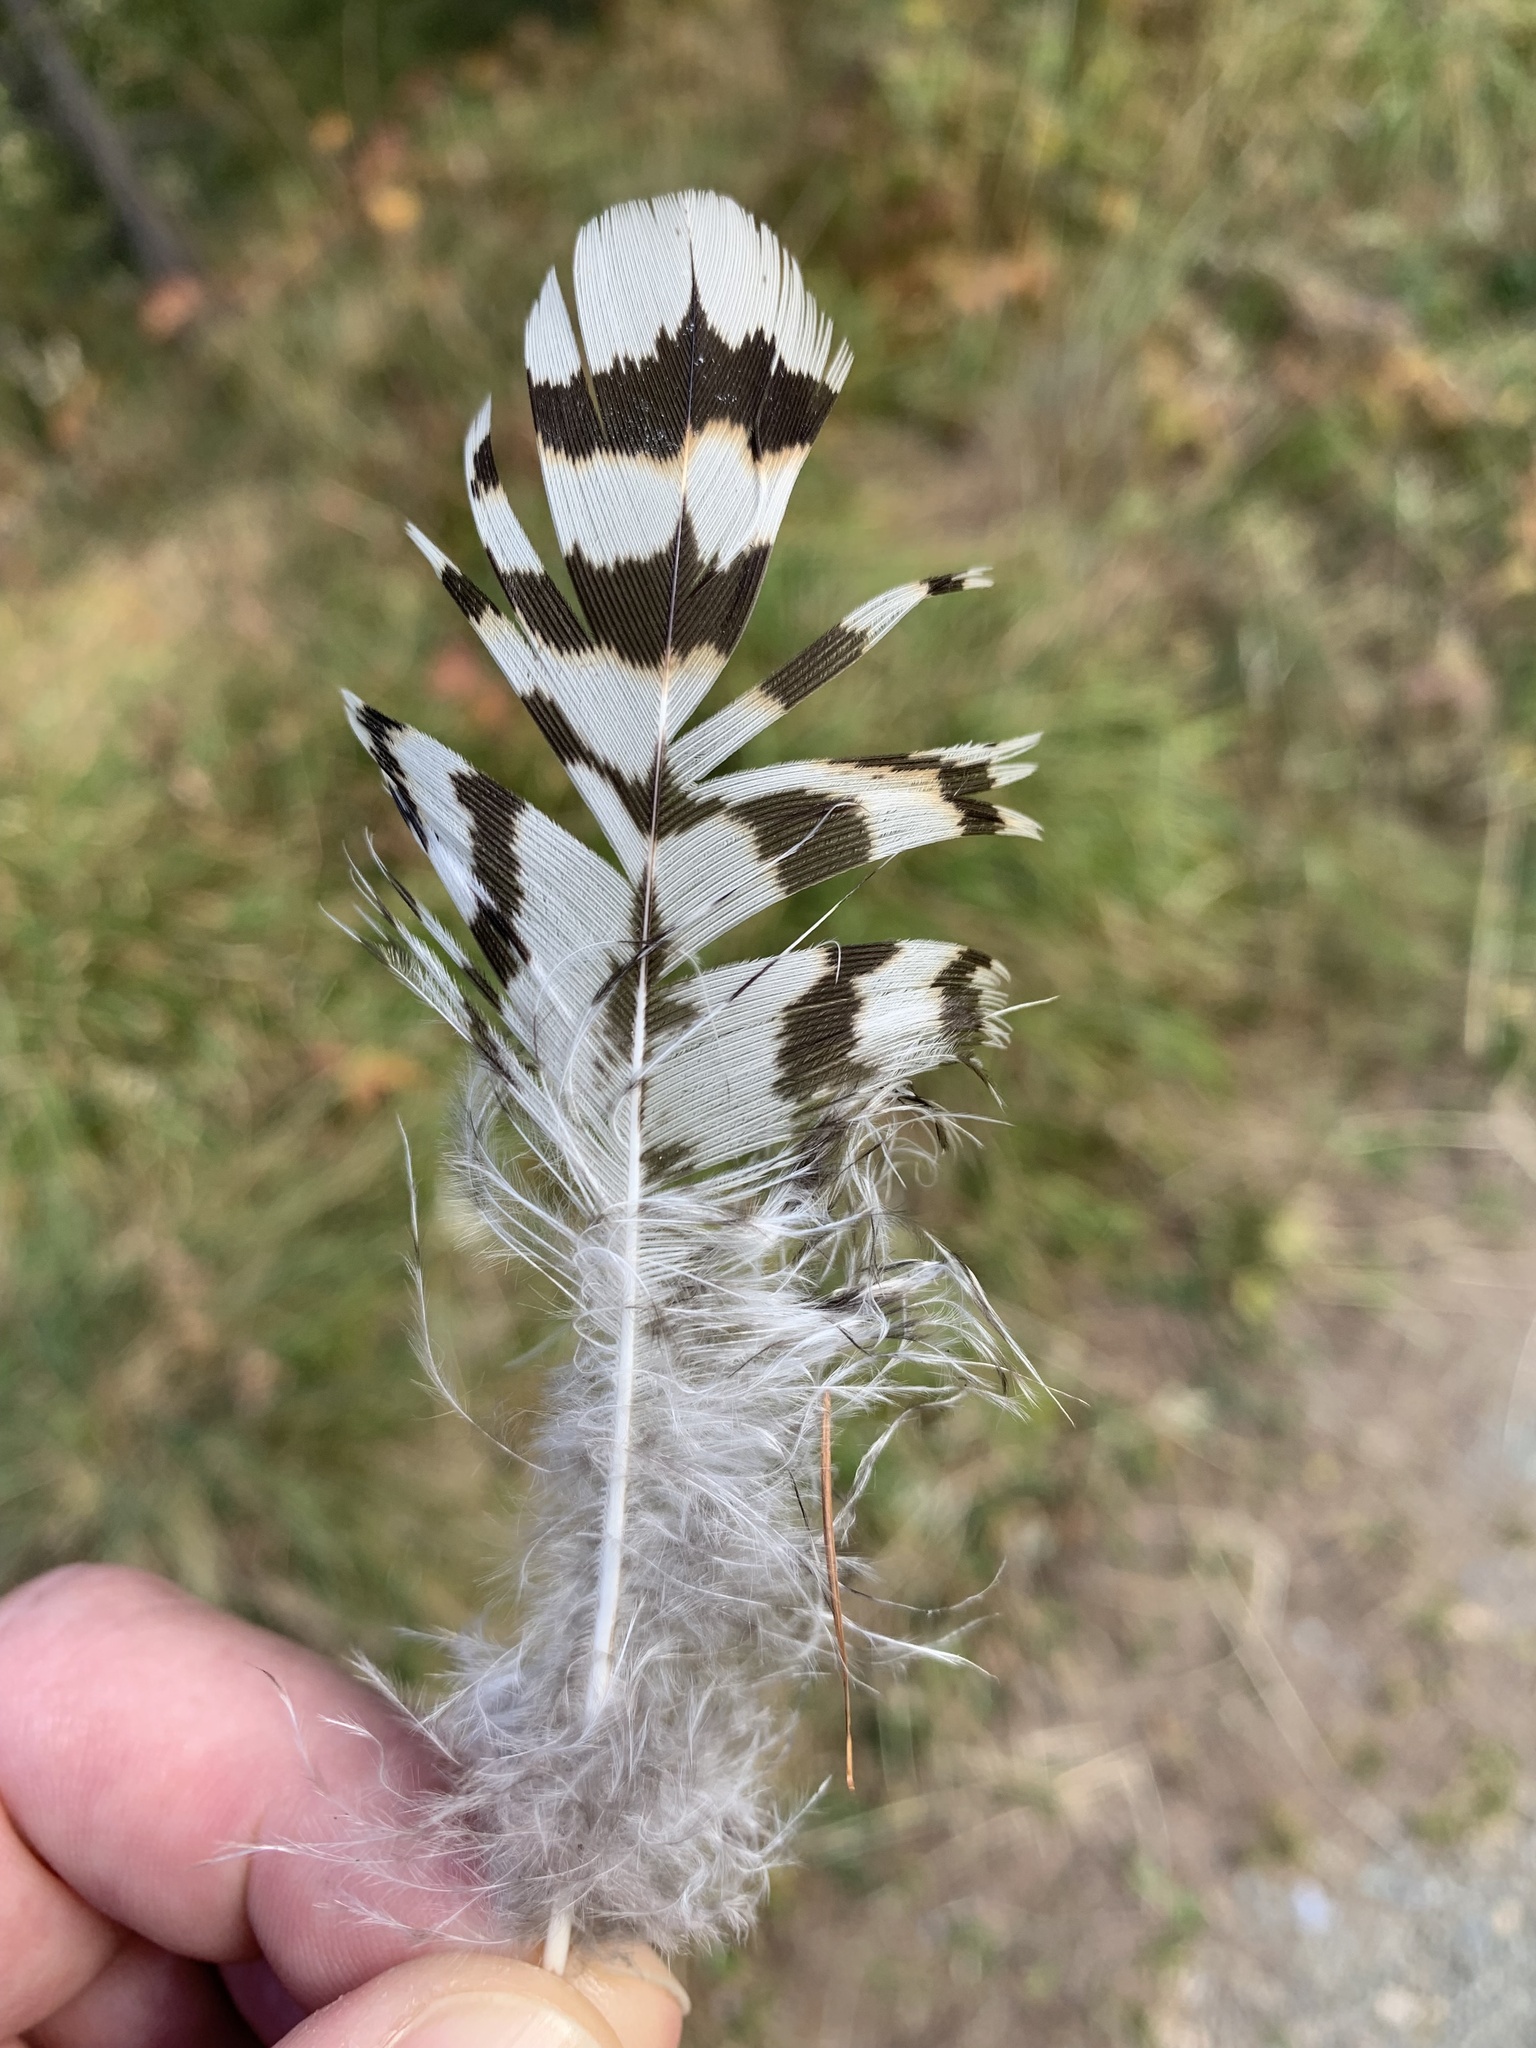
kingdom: Animalia
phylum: Chordata
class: Aves
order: Galliformes
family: Phasianidae
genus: Lyrurus
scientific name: Lyrurus tetrix
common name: Black grouse
